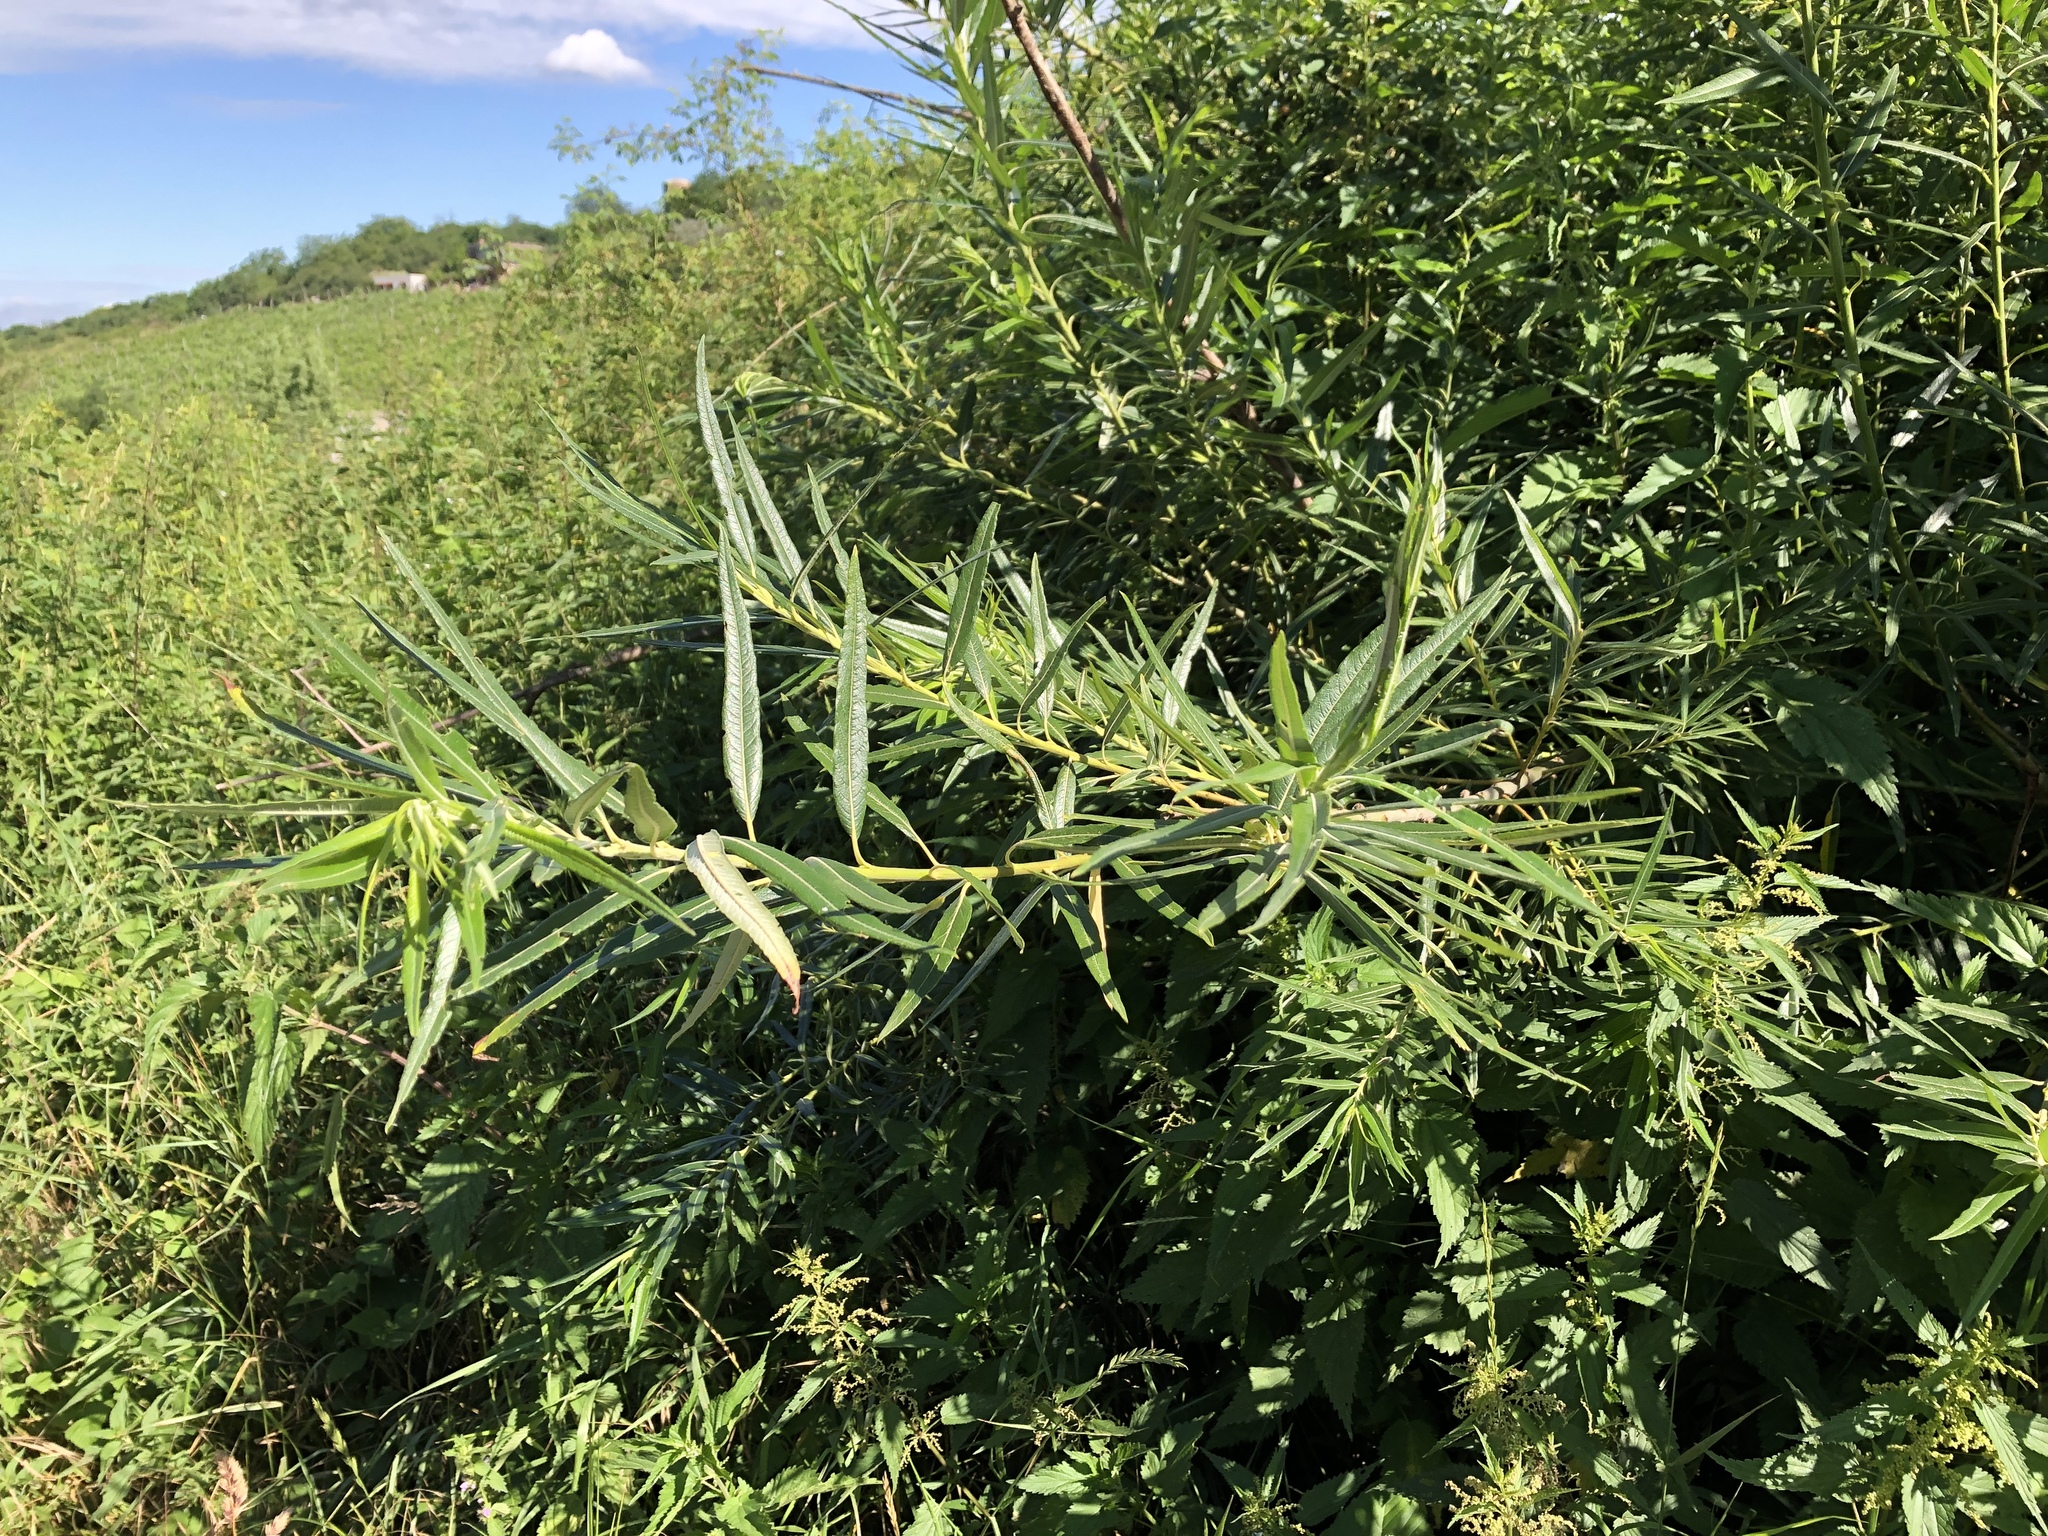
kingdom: Plantae
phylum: Tracheophyta
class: Magnoliopsida
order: Malpighiales
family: Salicaceae
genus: Salix
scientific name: Salix viminalis
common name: Osier
